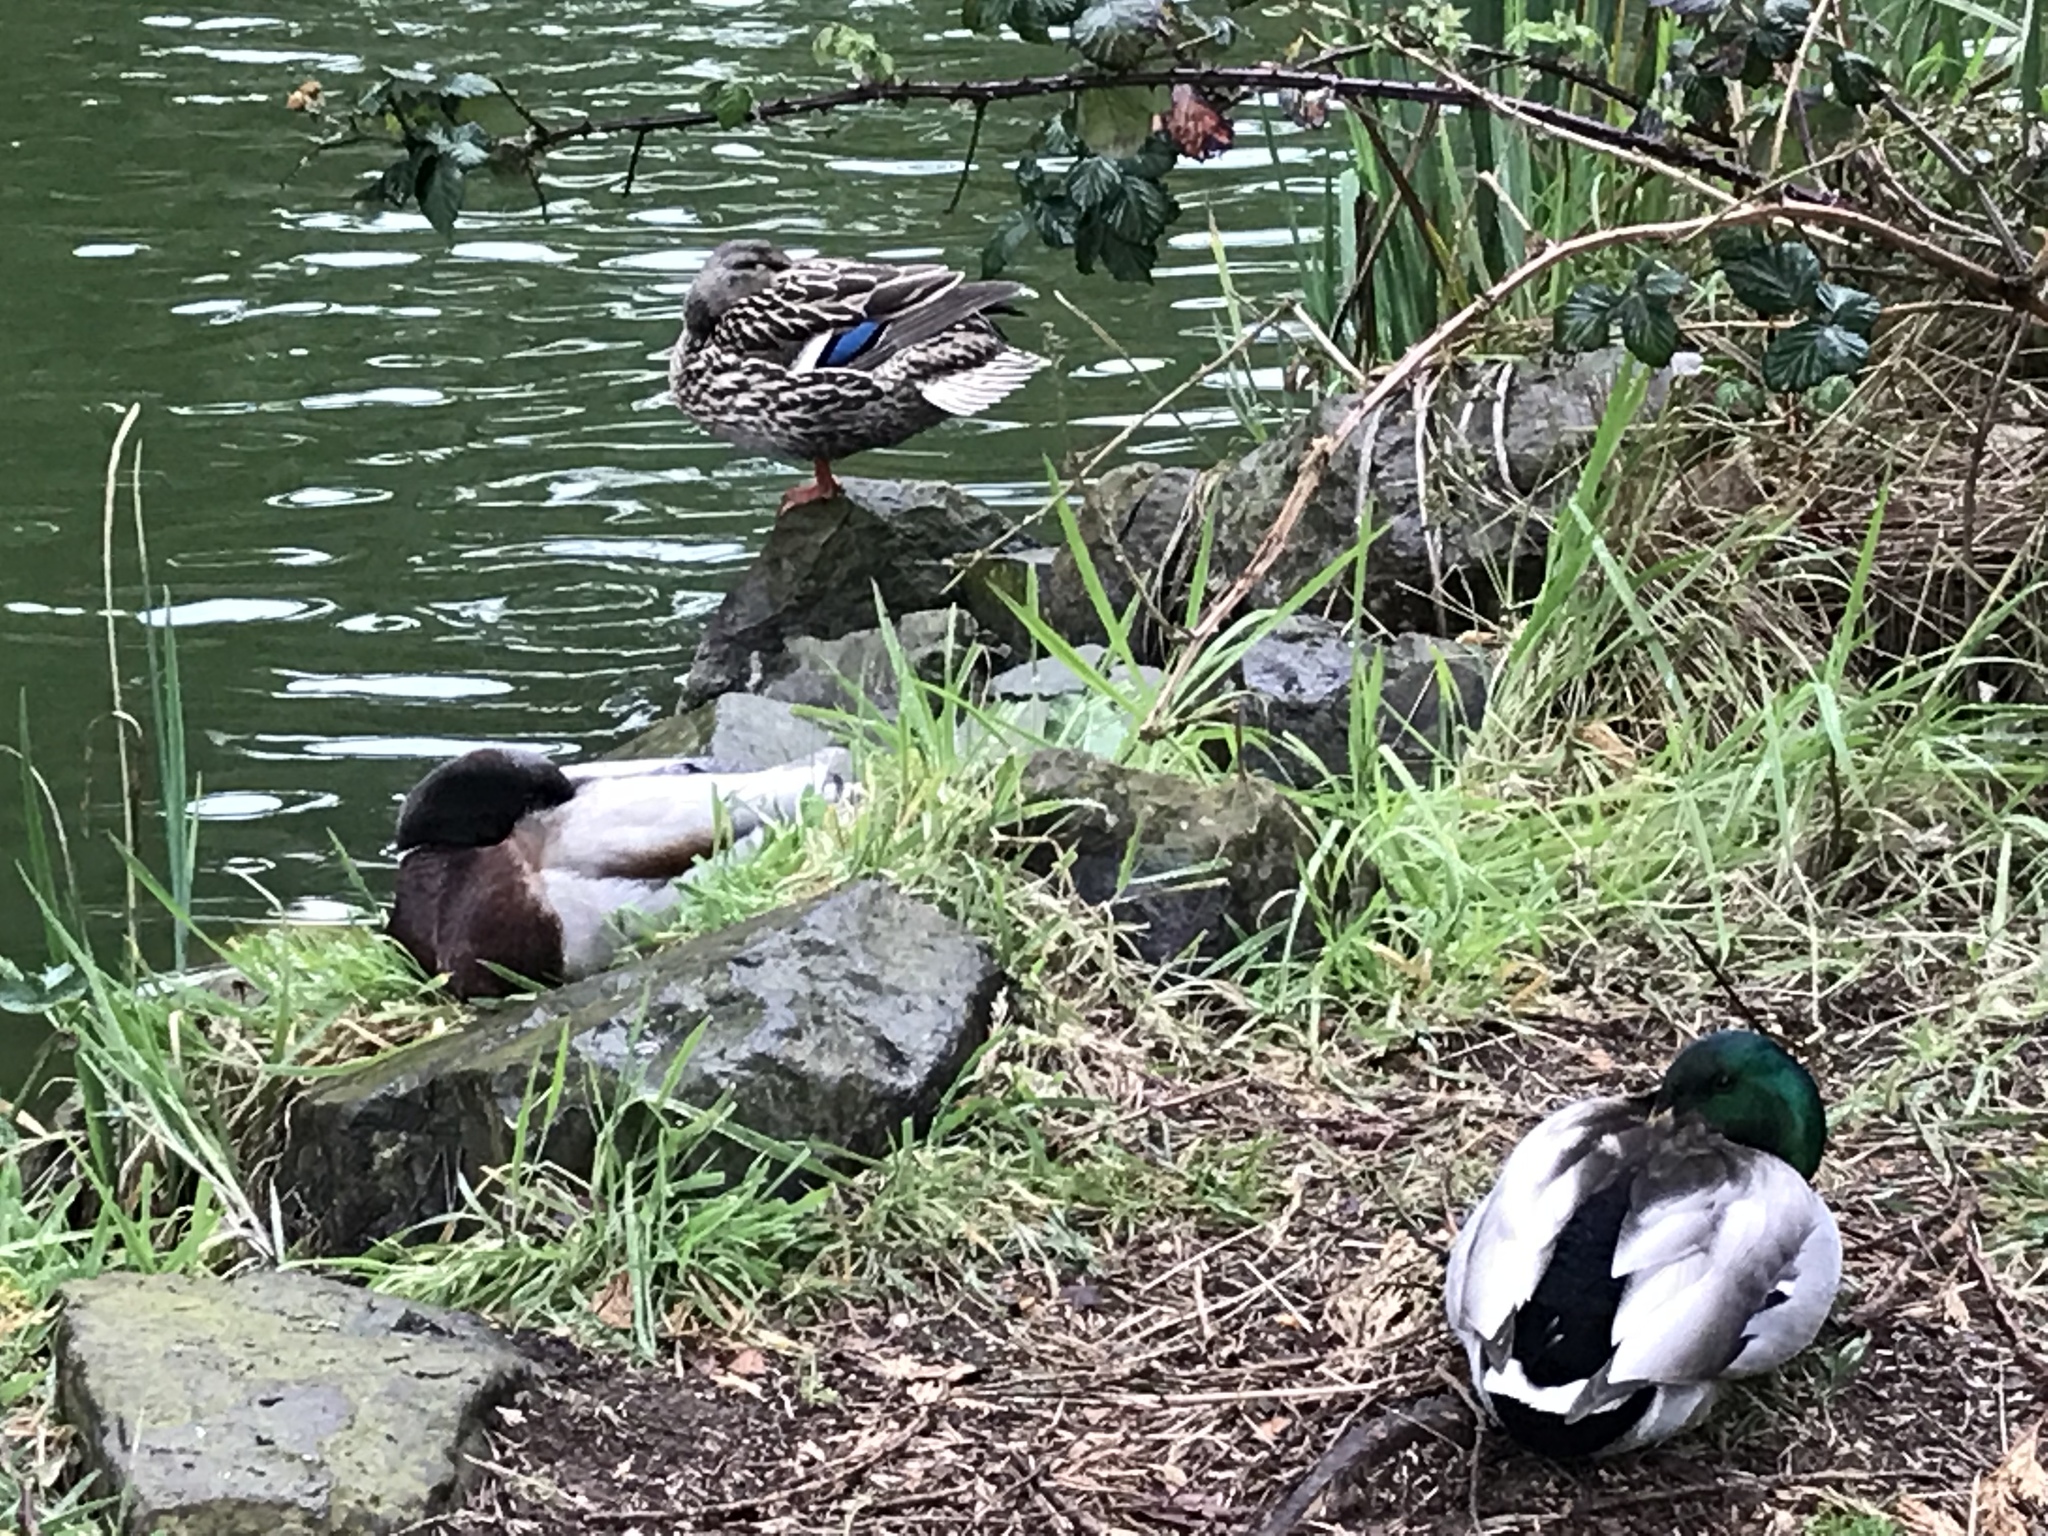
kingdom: Animalia
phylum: Chordata
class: Aves
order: Anseriformes
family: Anatidae
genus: Anas
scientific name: Anas platyrhynchos
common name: Mallard
